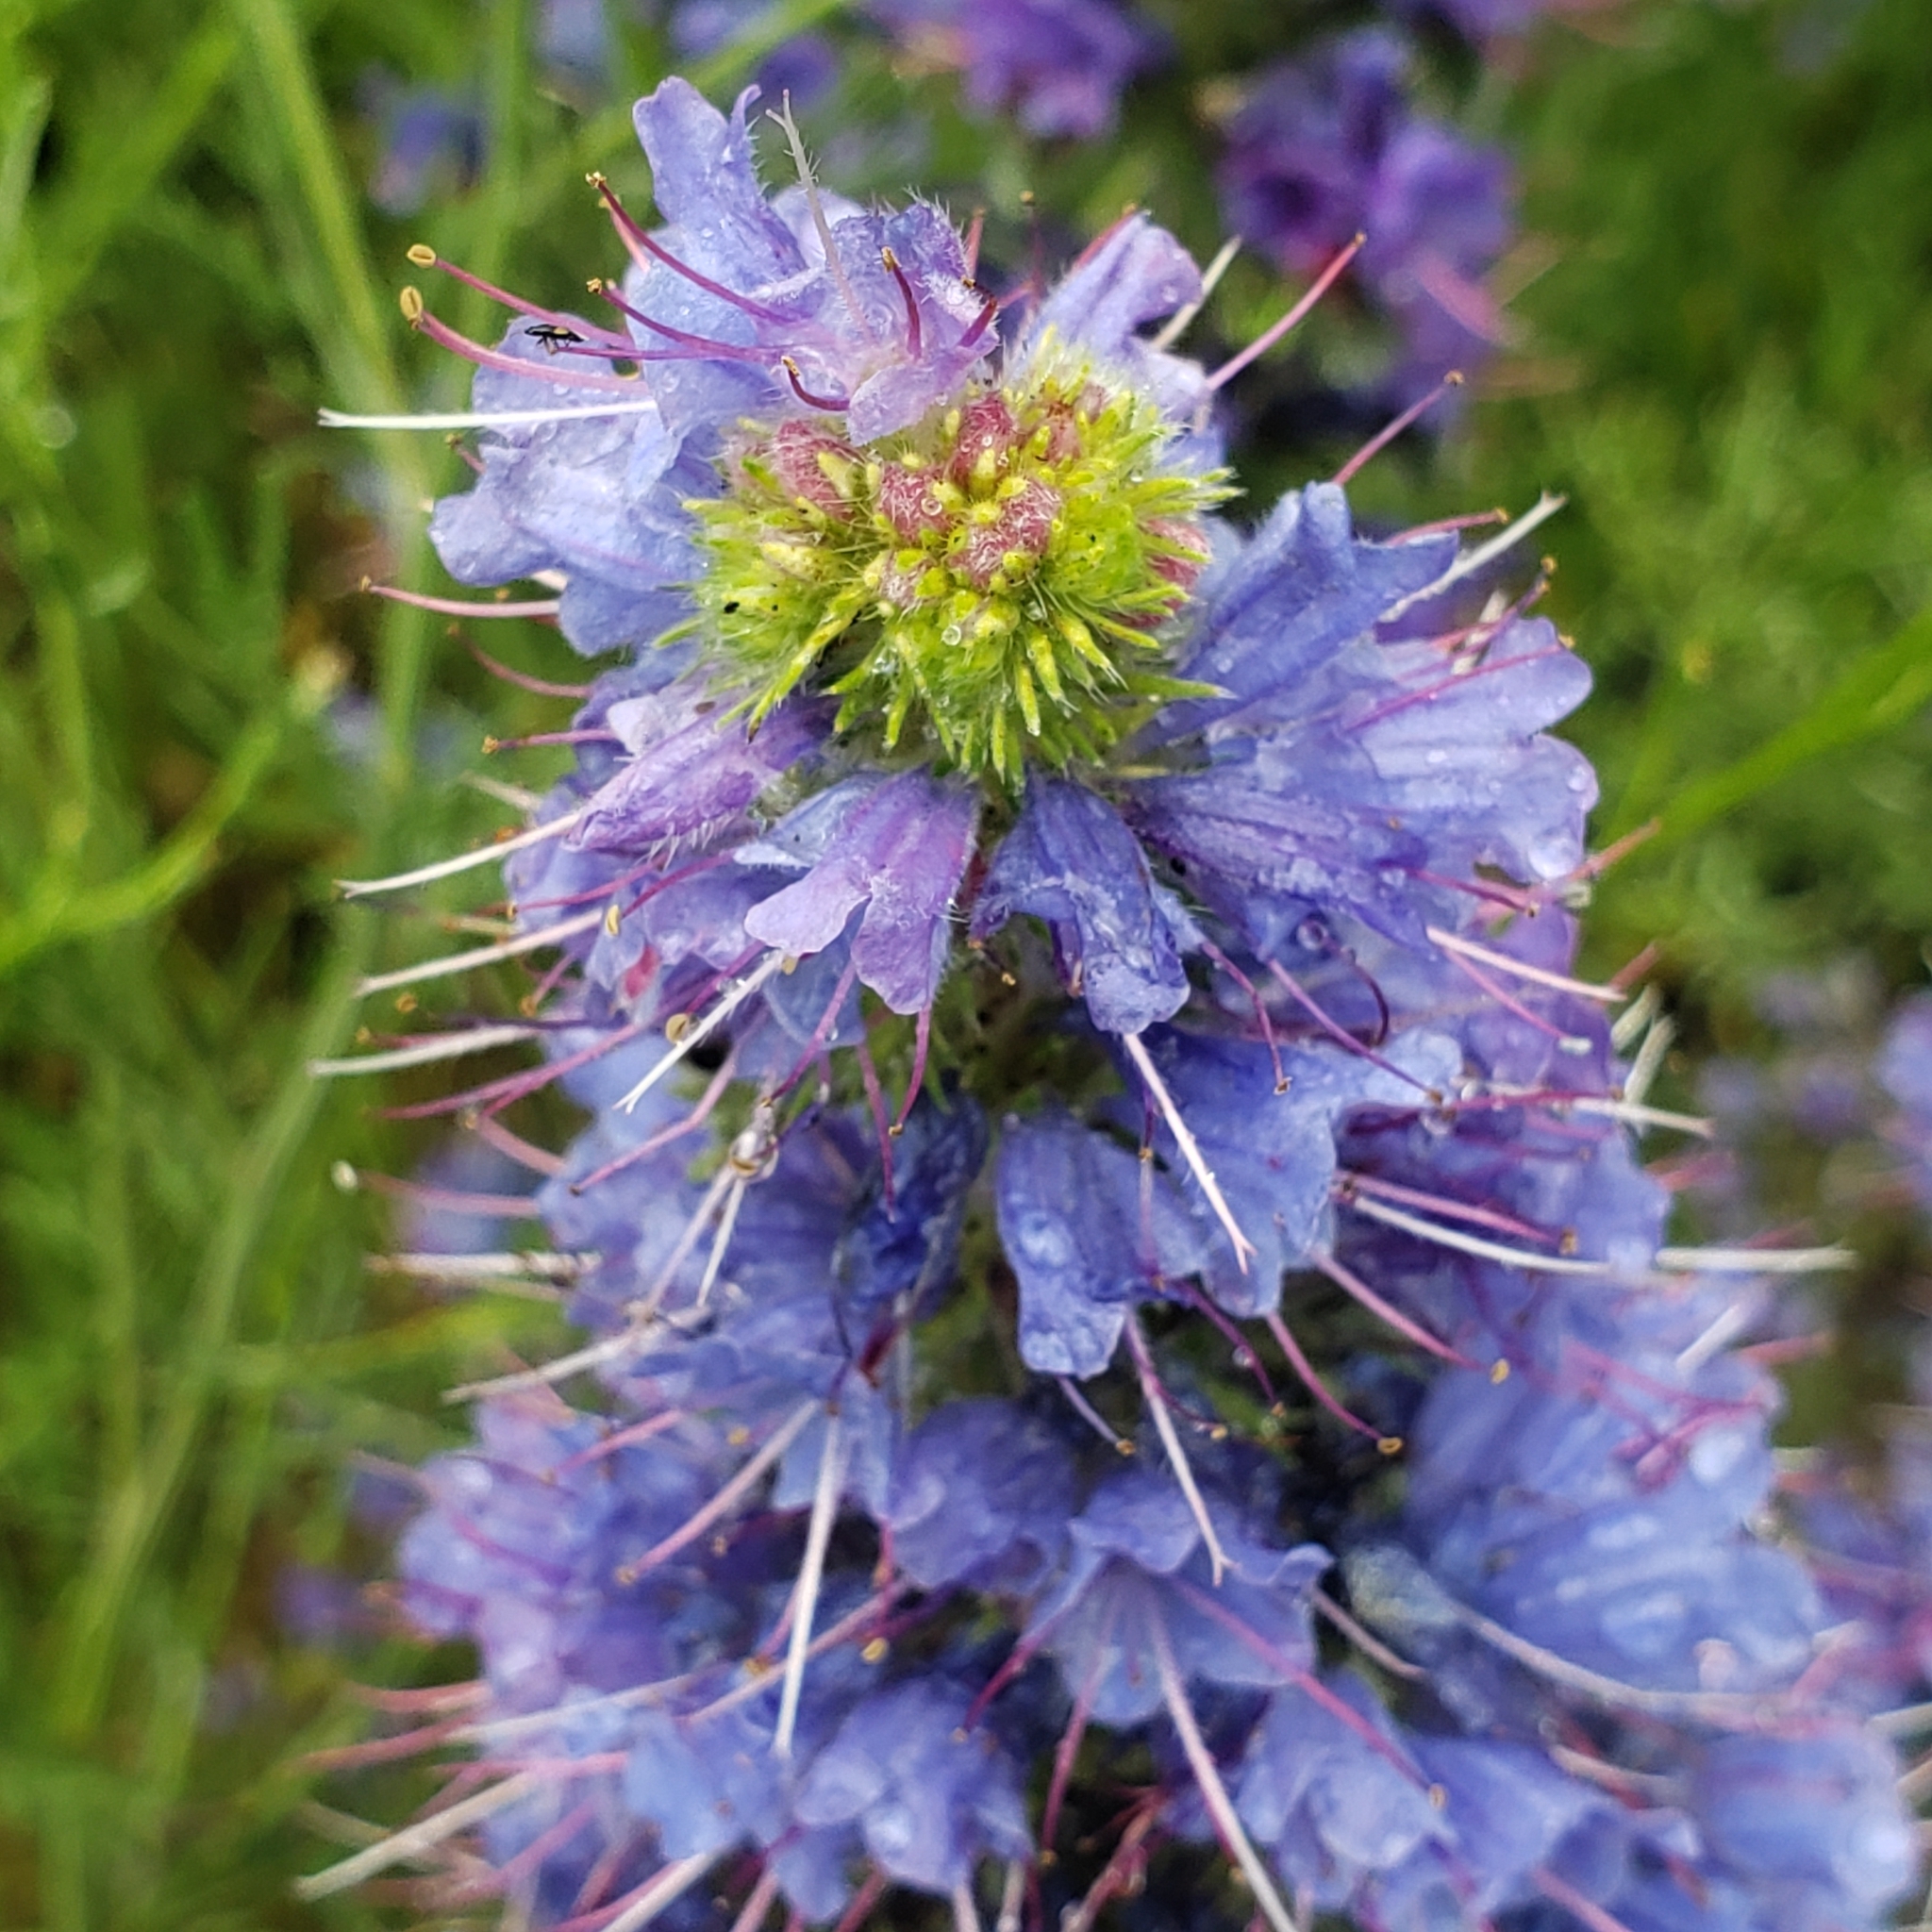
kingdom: Plantae
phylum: Tracheophyta
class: Magnoliopsida
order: Boraginales
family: Boraginaceae
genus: Echium
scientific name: Echium vulgare
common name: Common viper's bugloss
